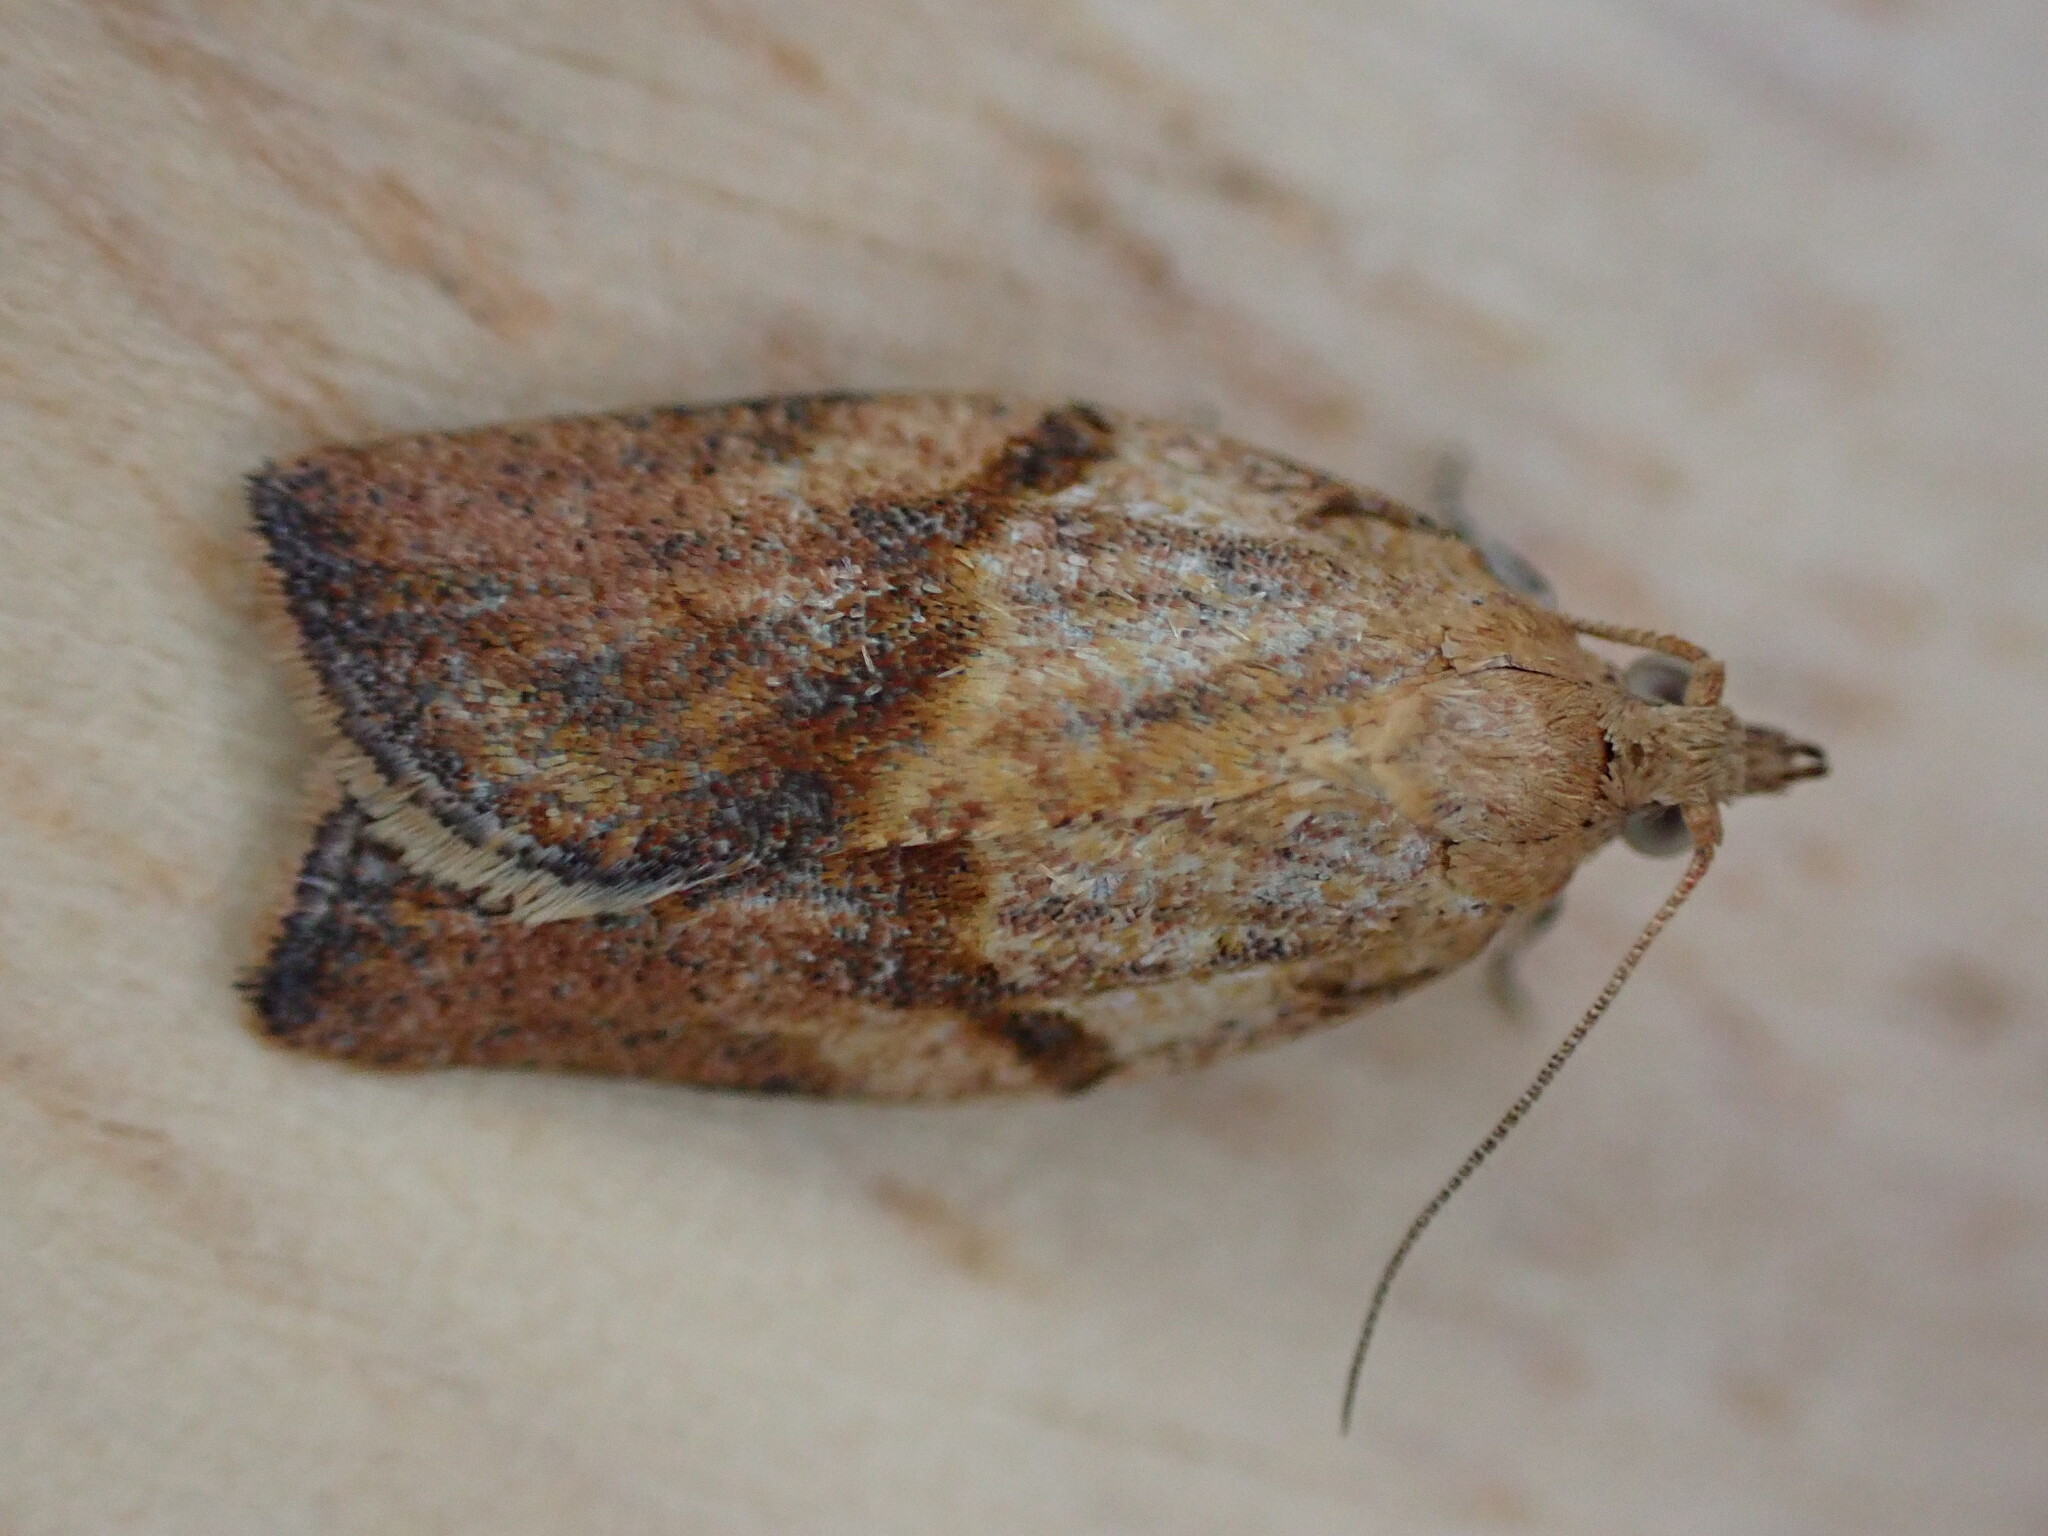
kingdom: Animalia
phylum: Arthropoda
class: Insecta
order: Lepidoptera
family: Tortricidae
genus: Epiphyas
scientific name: Epiphyas postvittana
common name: Light brown apple moth
